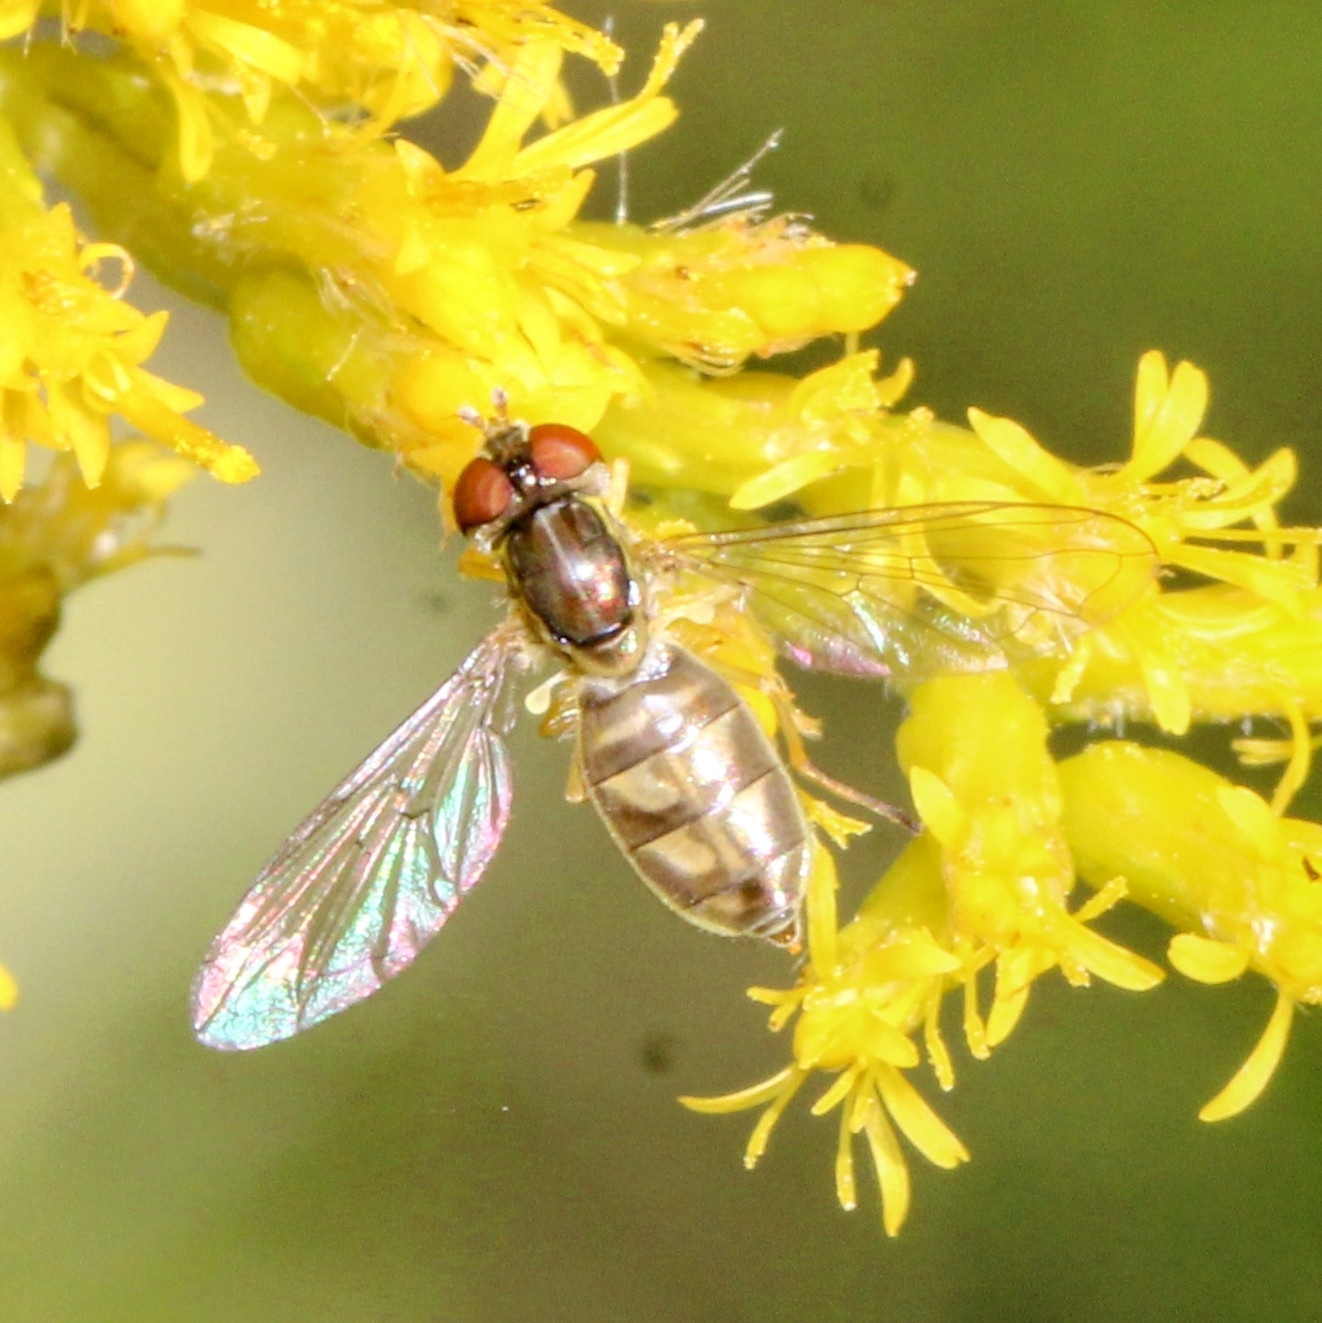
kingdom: Animalia
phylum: Arthropoda
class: Insecta
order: Diptera
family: Syrphidae
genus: Toxomerus
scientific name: Toxomerus marginatus
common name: Syrphid fly
